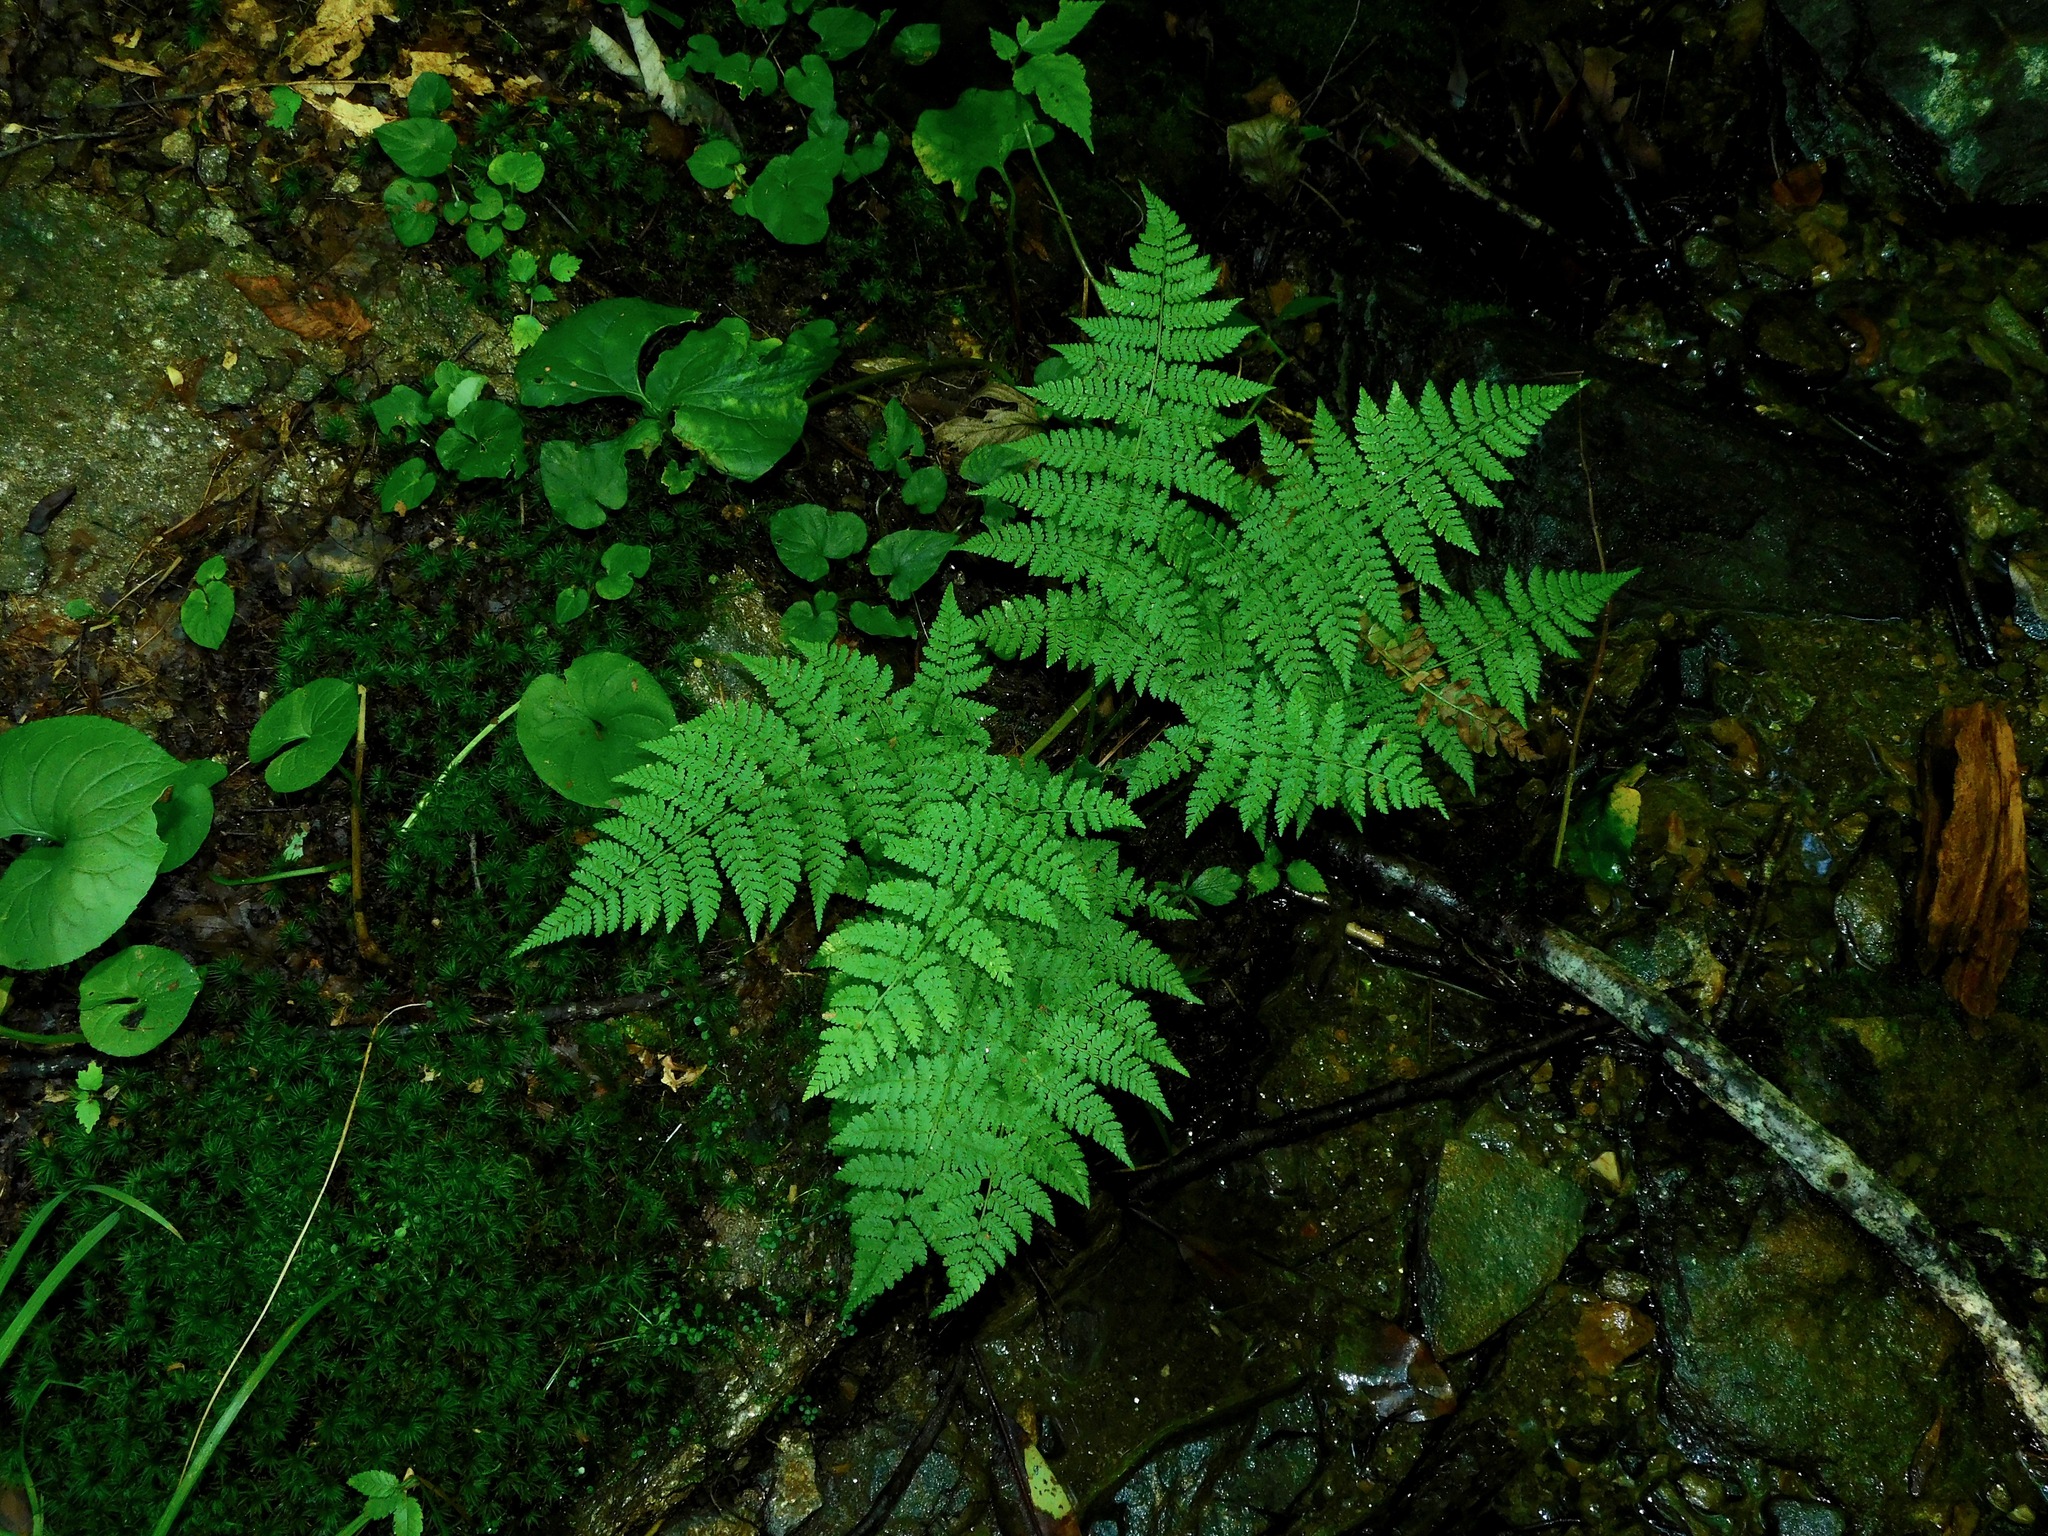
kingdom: Plantae
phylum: Tracheophyta
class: Polypodiopsida
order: Polypodiales
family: Dryopteridaceae
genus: Dryopteris
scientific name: Dryopteris intermedia
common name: Evergreen wood fern
